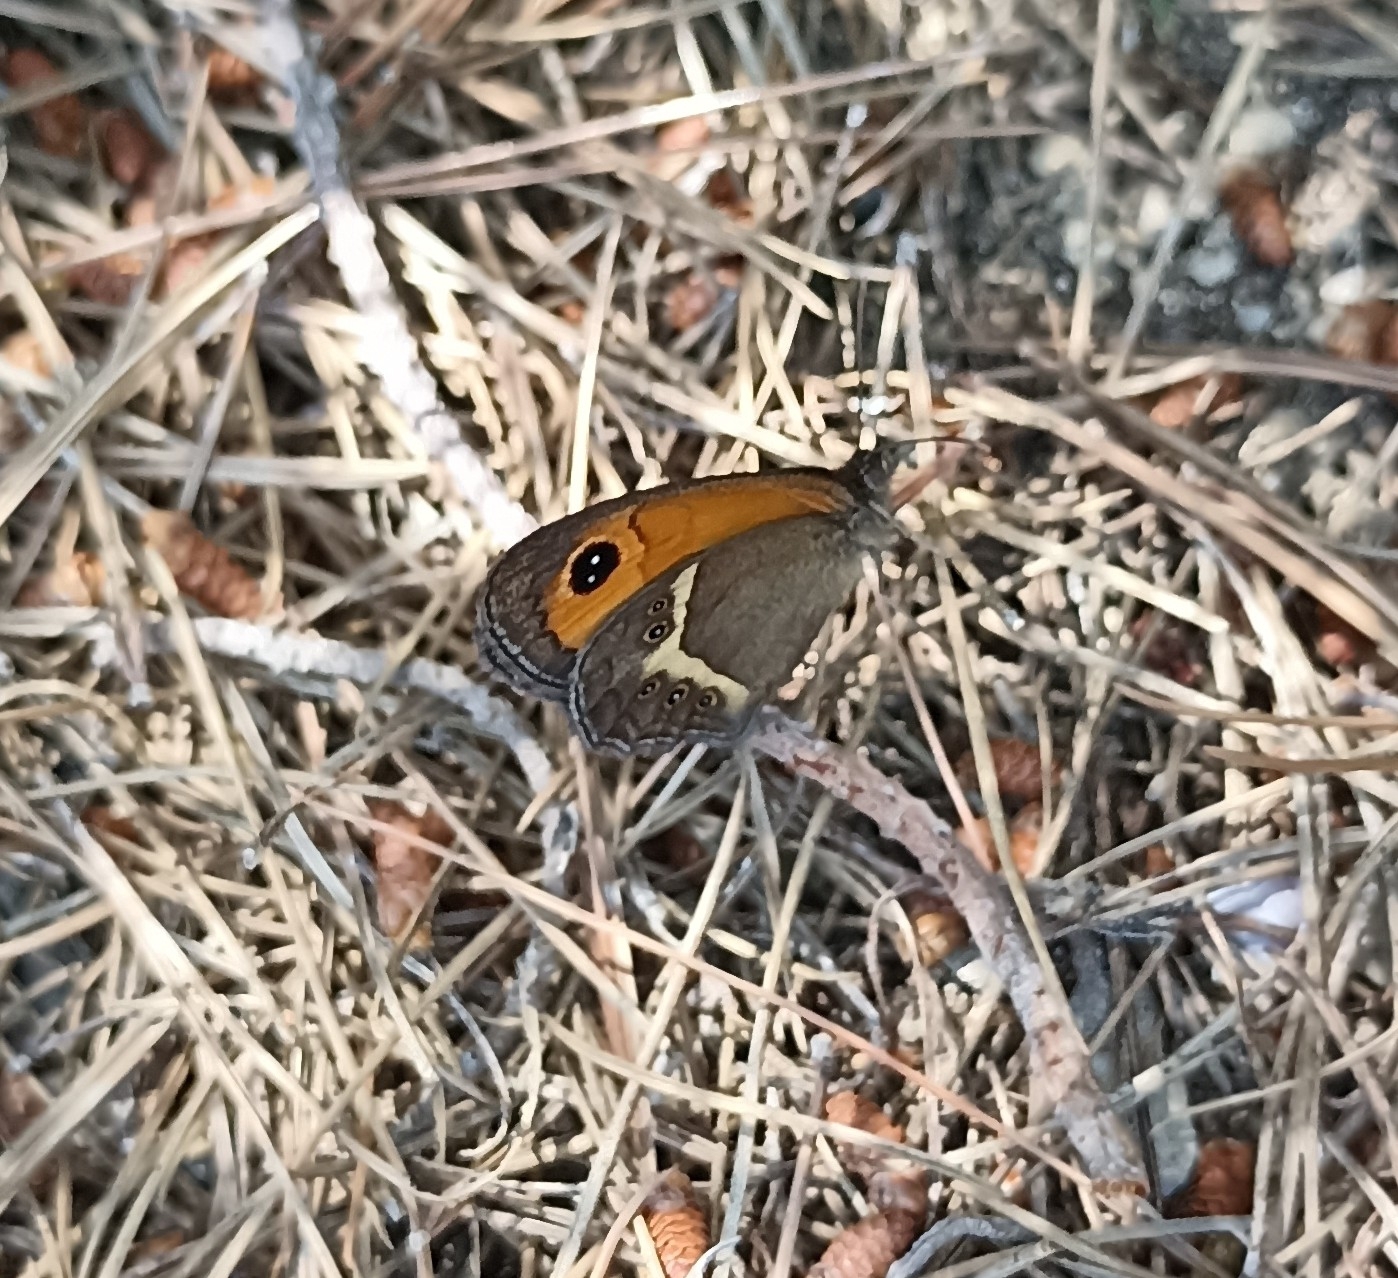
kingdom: Animalia
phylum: Arthropoda
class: Insecta
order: Lepidoptera
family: Nymphalidae
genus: Pyronia
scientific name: Pyronia bathseba
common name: Spanish gatekeeper
